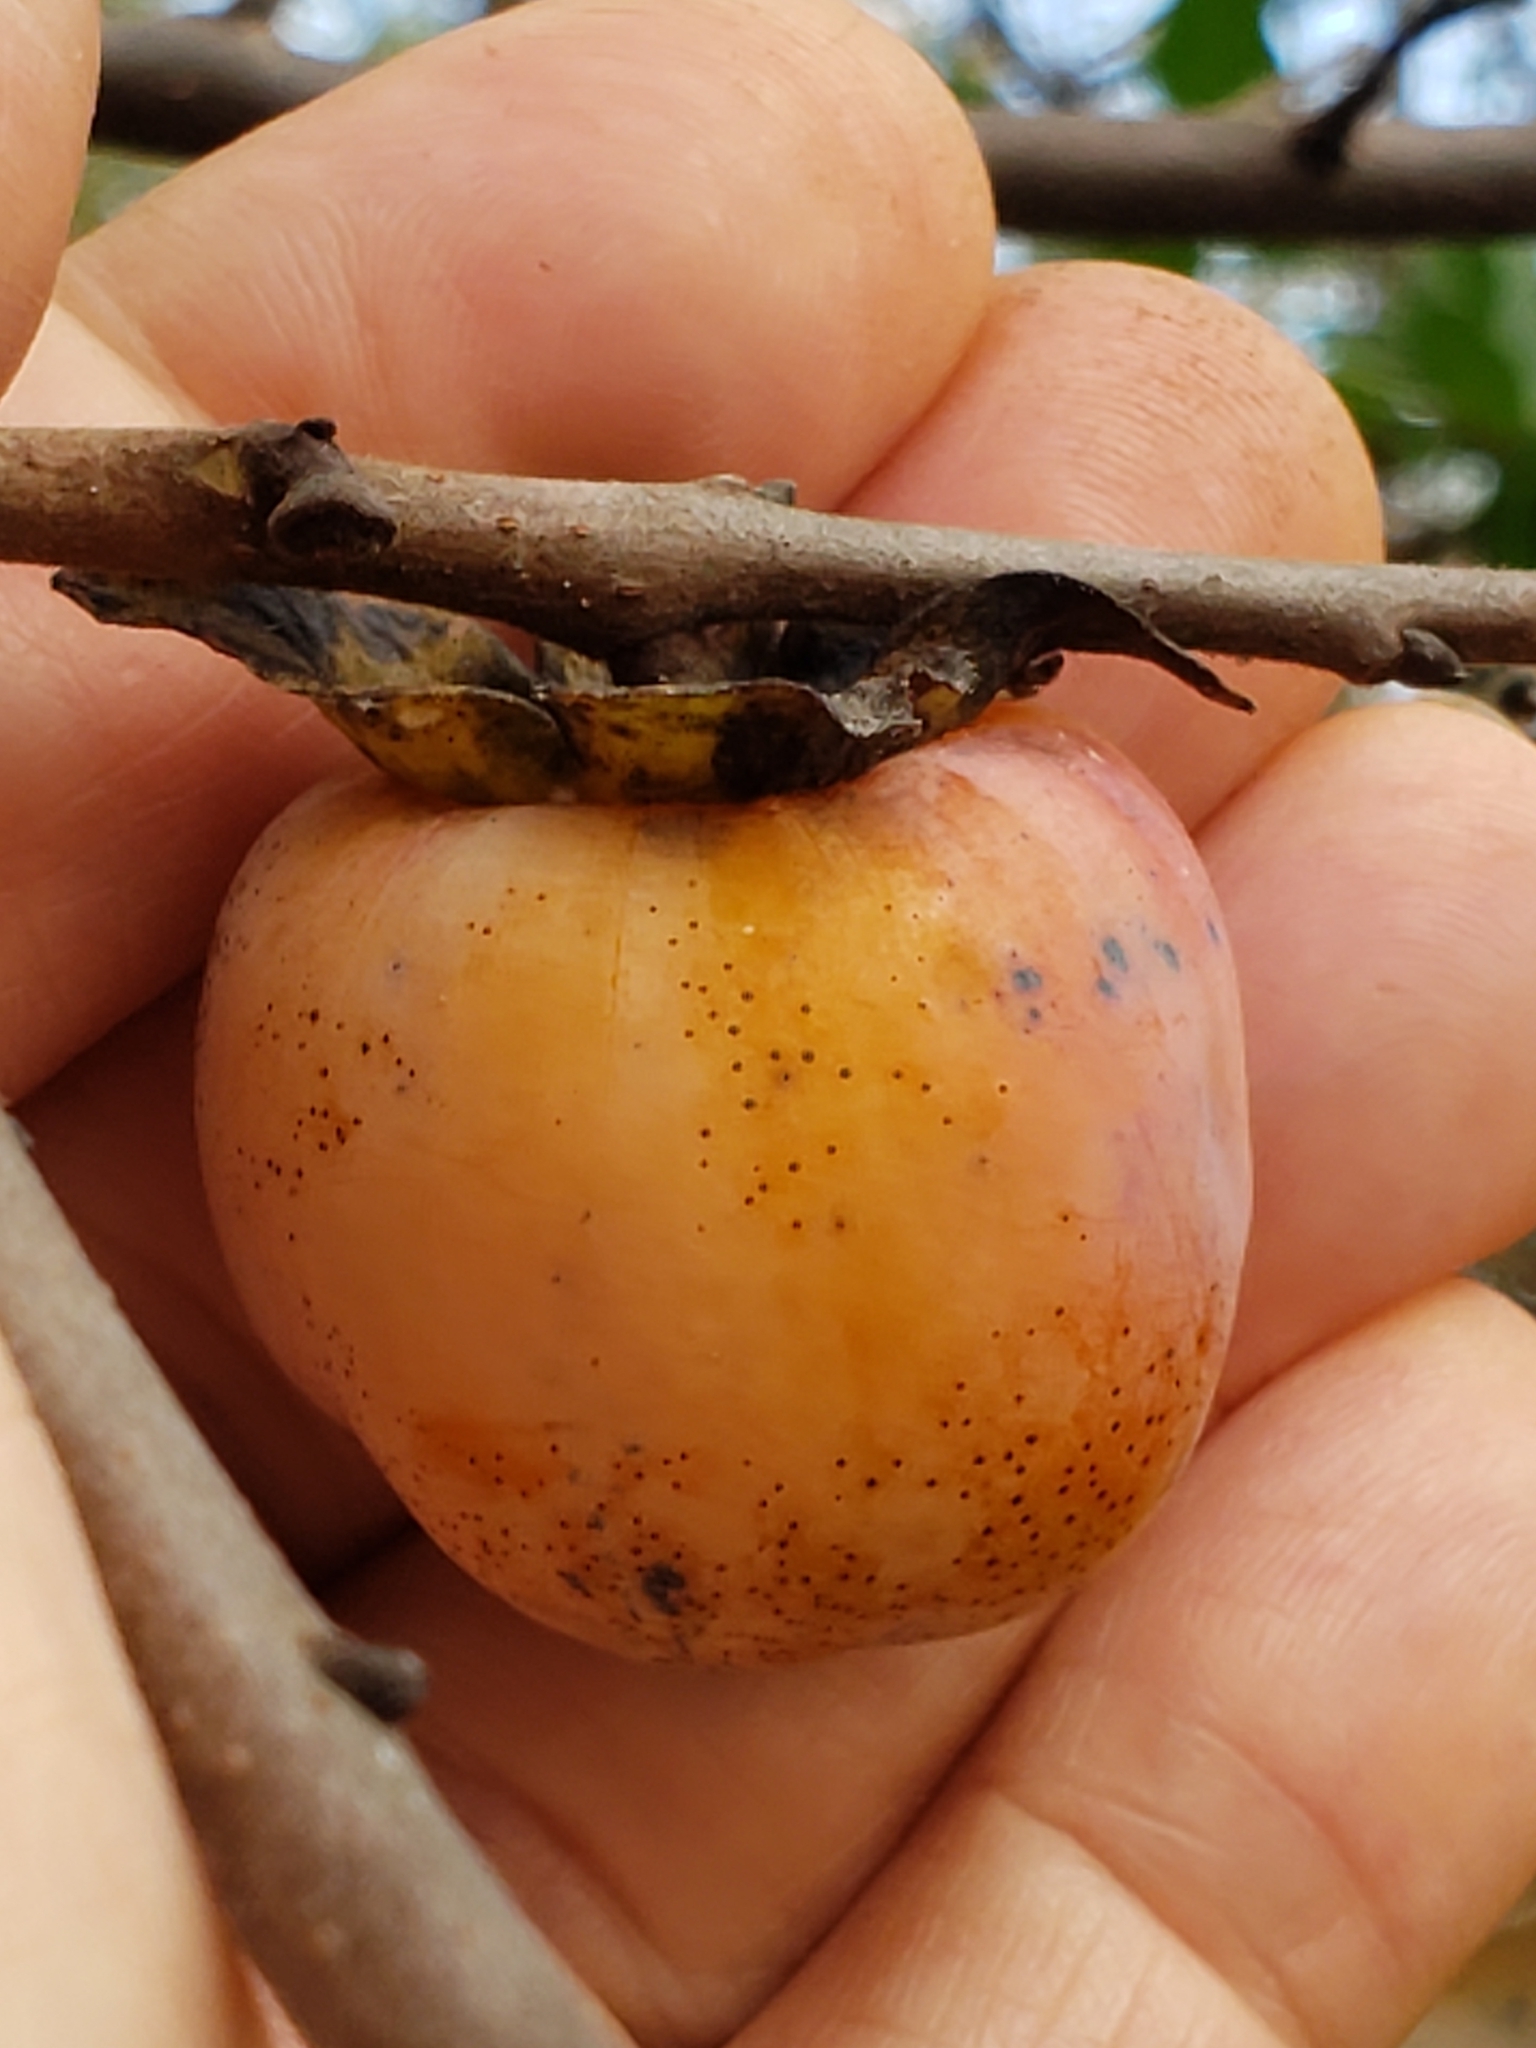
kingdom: Plantae
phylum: Tracheophyta
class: Magnoliopsida
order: Ericales
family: Ebenaceae
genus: Diospyros
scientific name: Diospyros virginiana
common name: Persimmon
